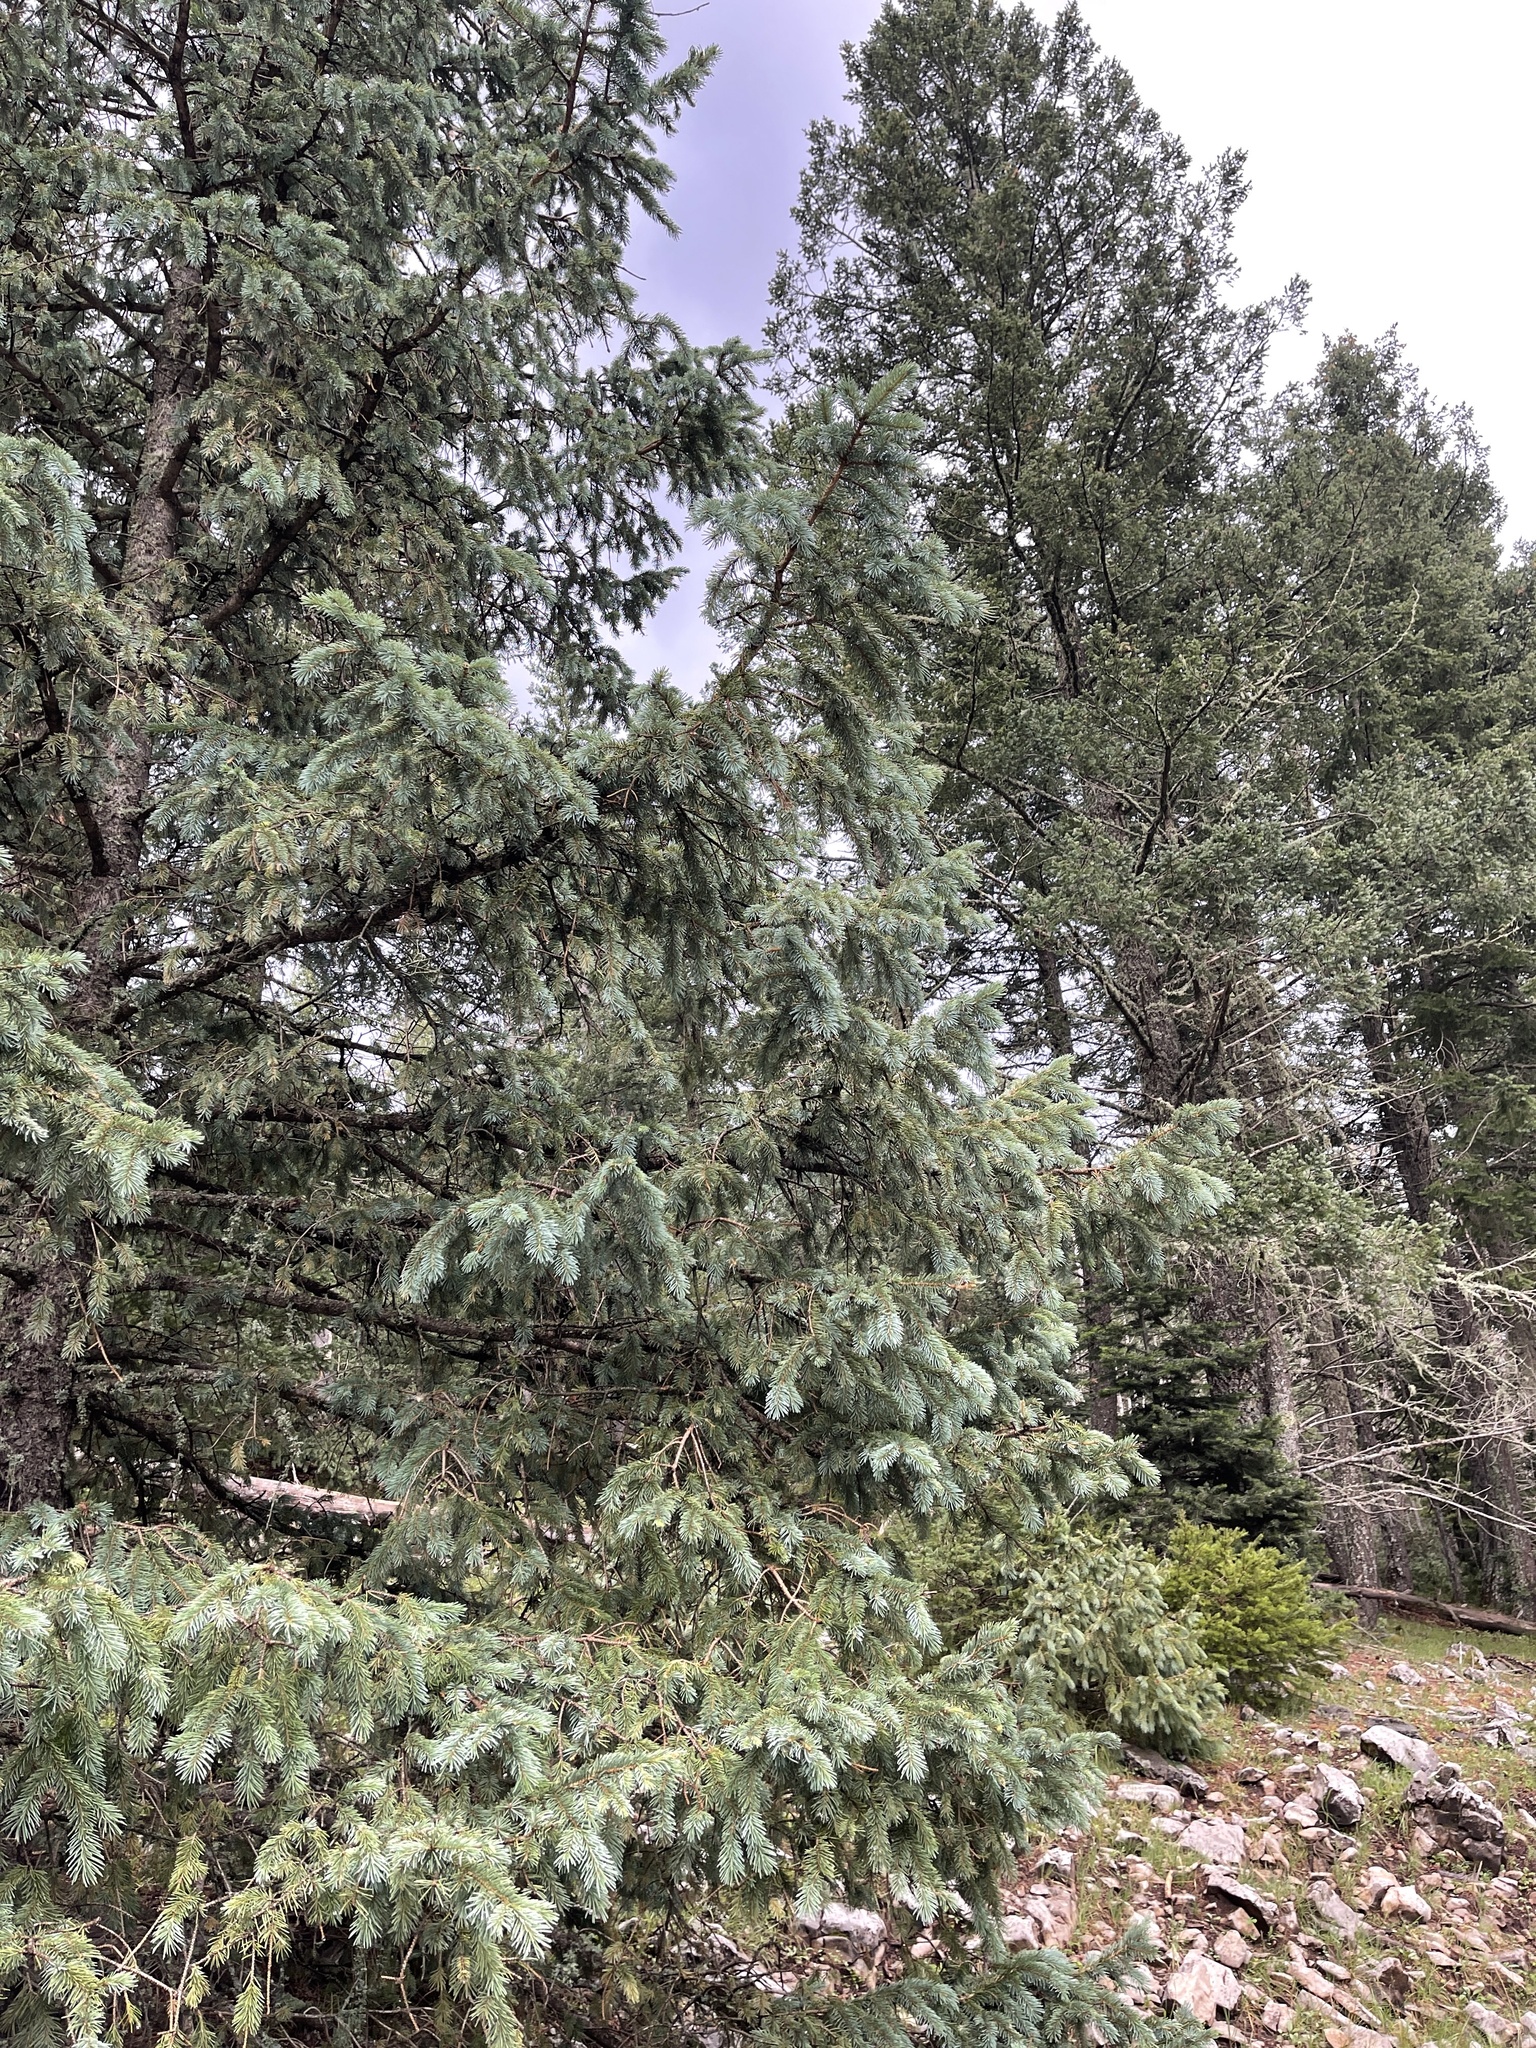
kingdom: Plantae
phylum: Tracheophyta
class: Pinopsida
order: Pinales
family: Pinaceae
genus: Picea
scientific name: Picea engelmannii
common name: Engelmann spruce
